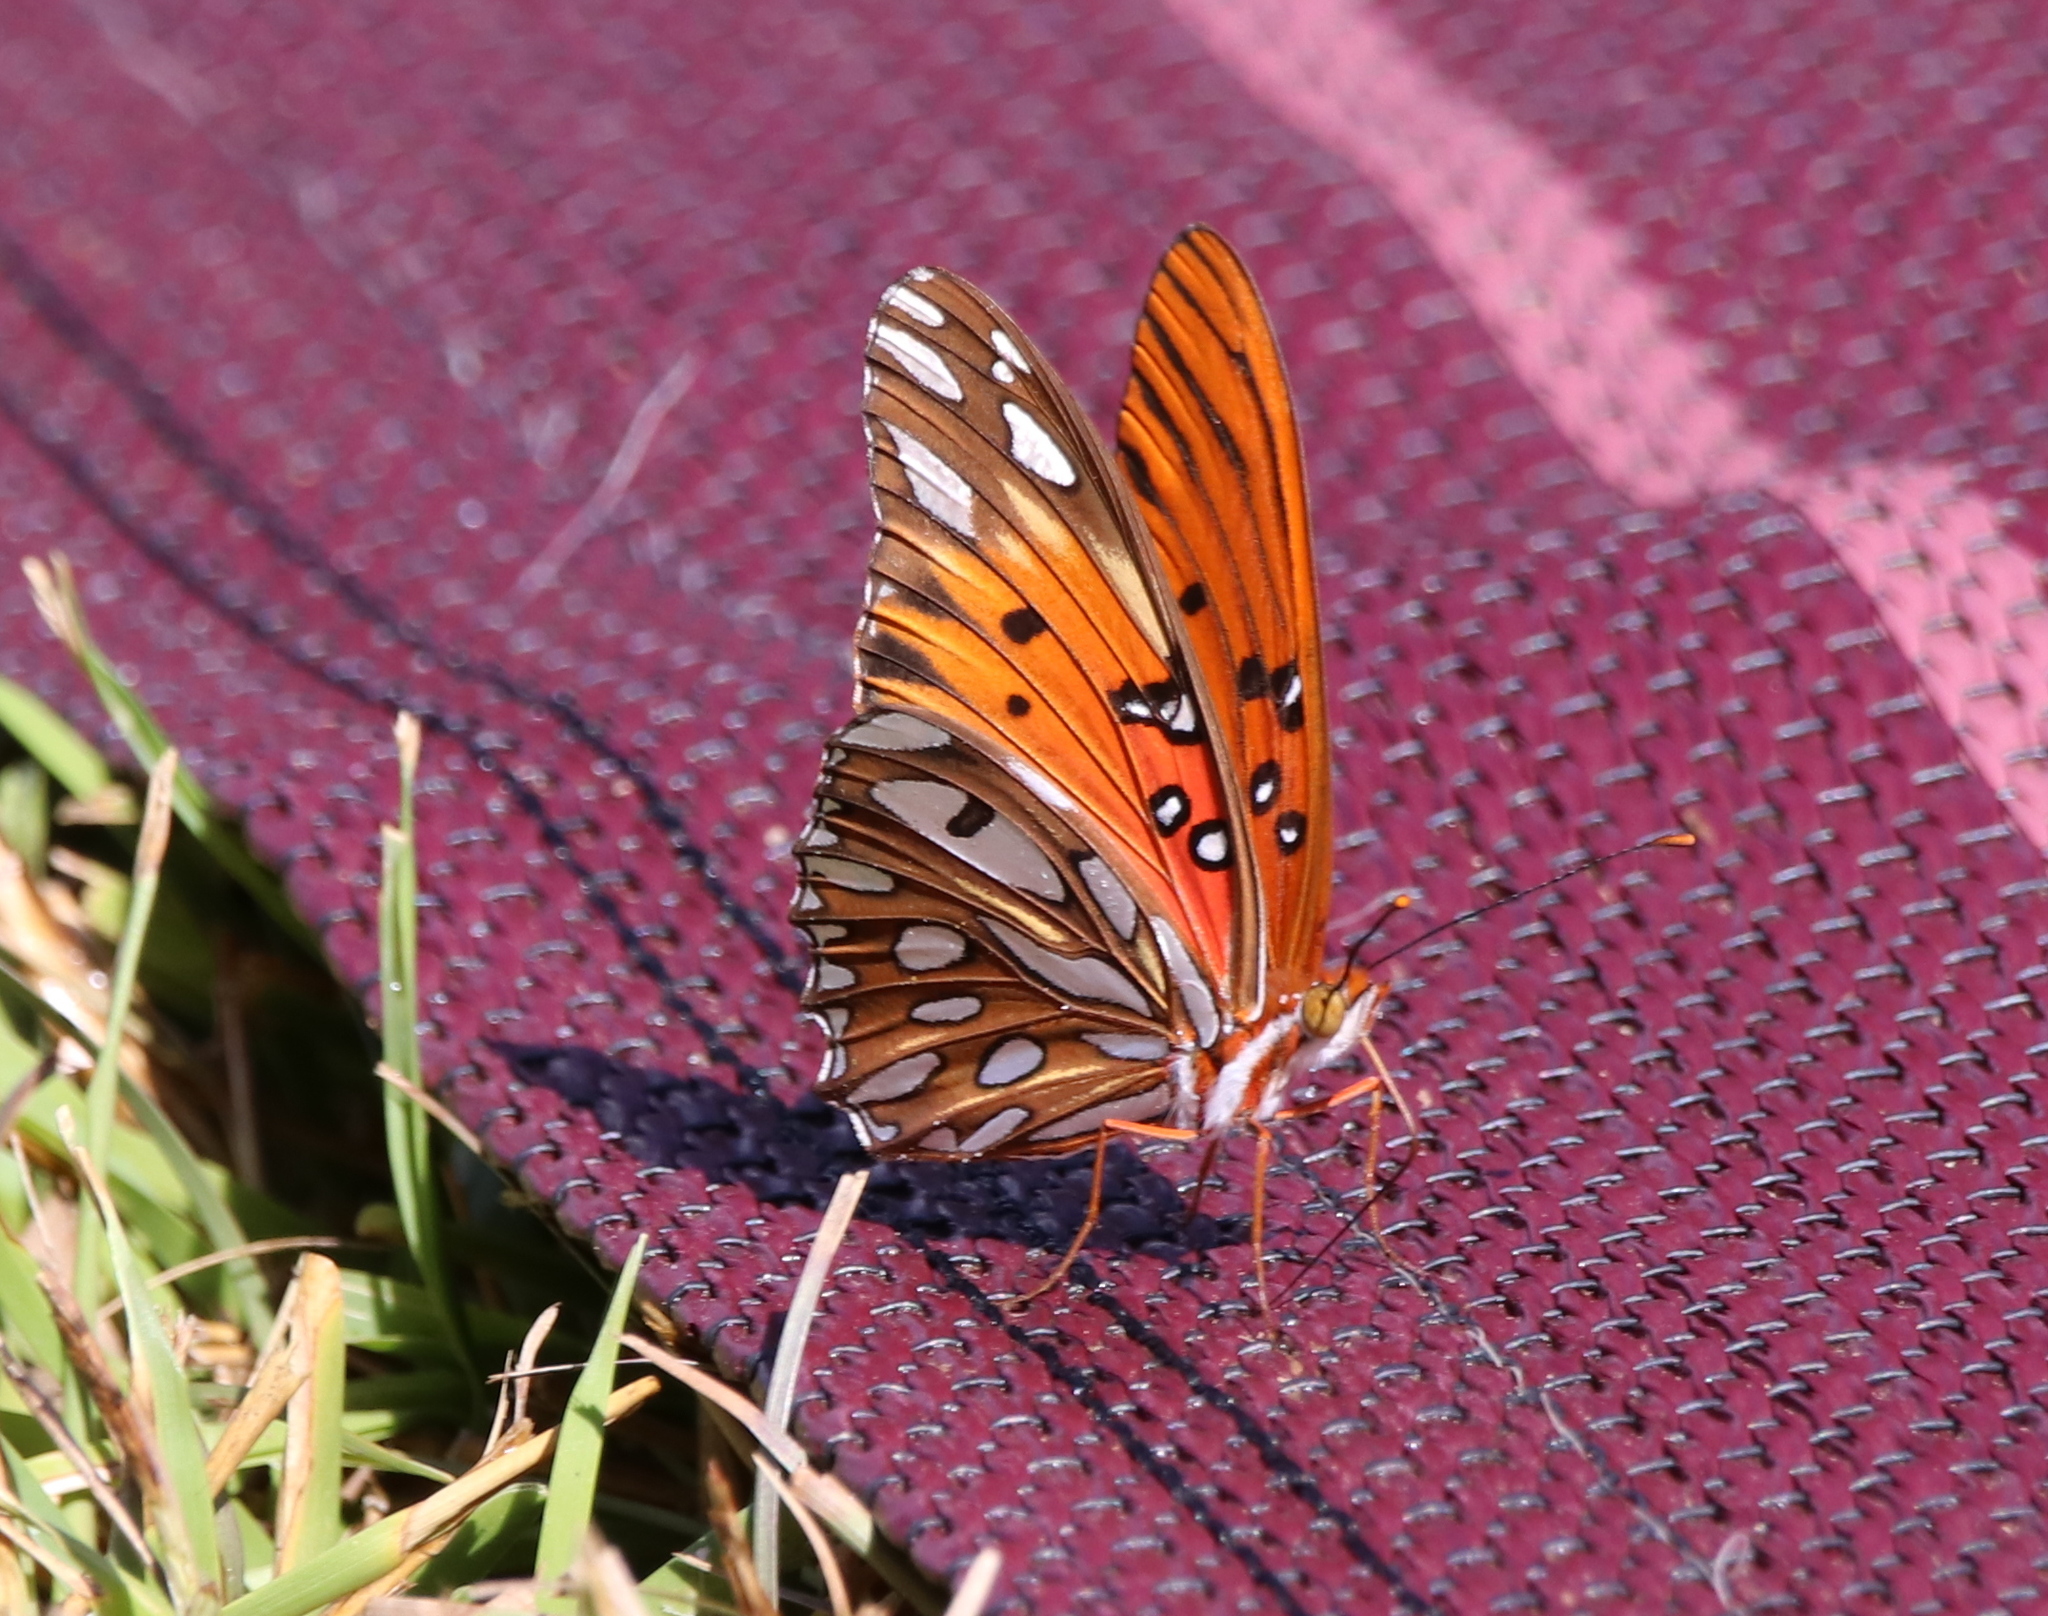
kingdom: Animalia
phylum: Arthropoda
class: Insecta
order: Lepidoptera
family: Nymphalidae
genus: Dione
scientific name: Dione vanillae
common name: Gulf fritillary
